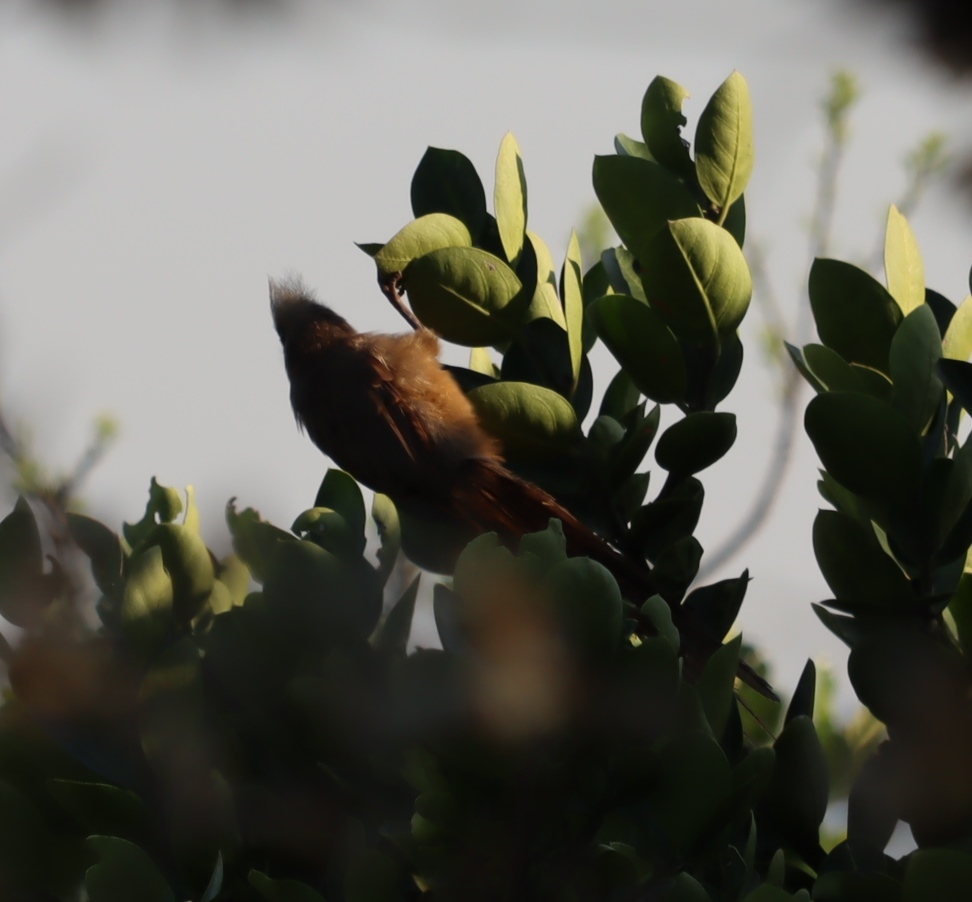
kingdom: Animalia
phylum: Chordata
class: Aves
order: Coliiformes
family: Coliidae
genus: Colius
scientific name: Colius striatus
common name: Speckled mousebird
